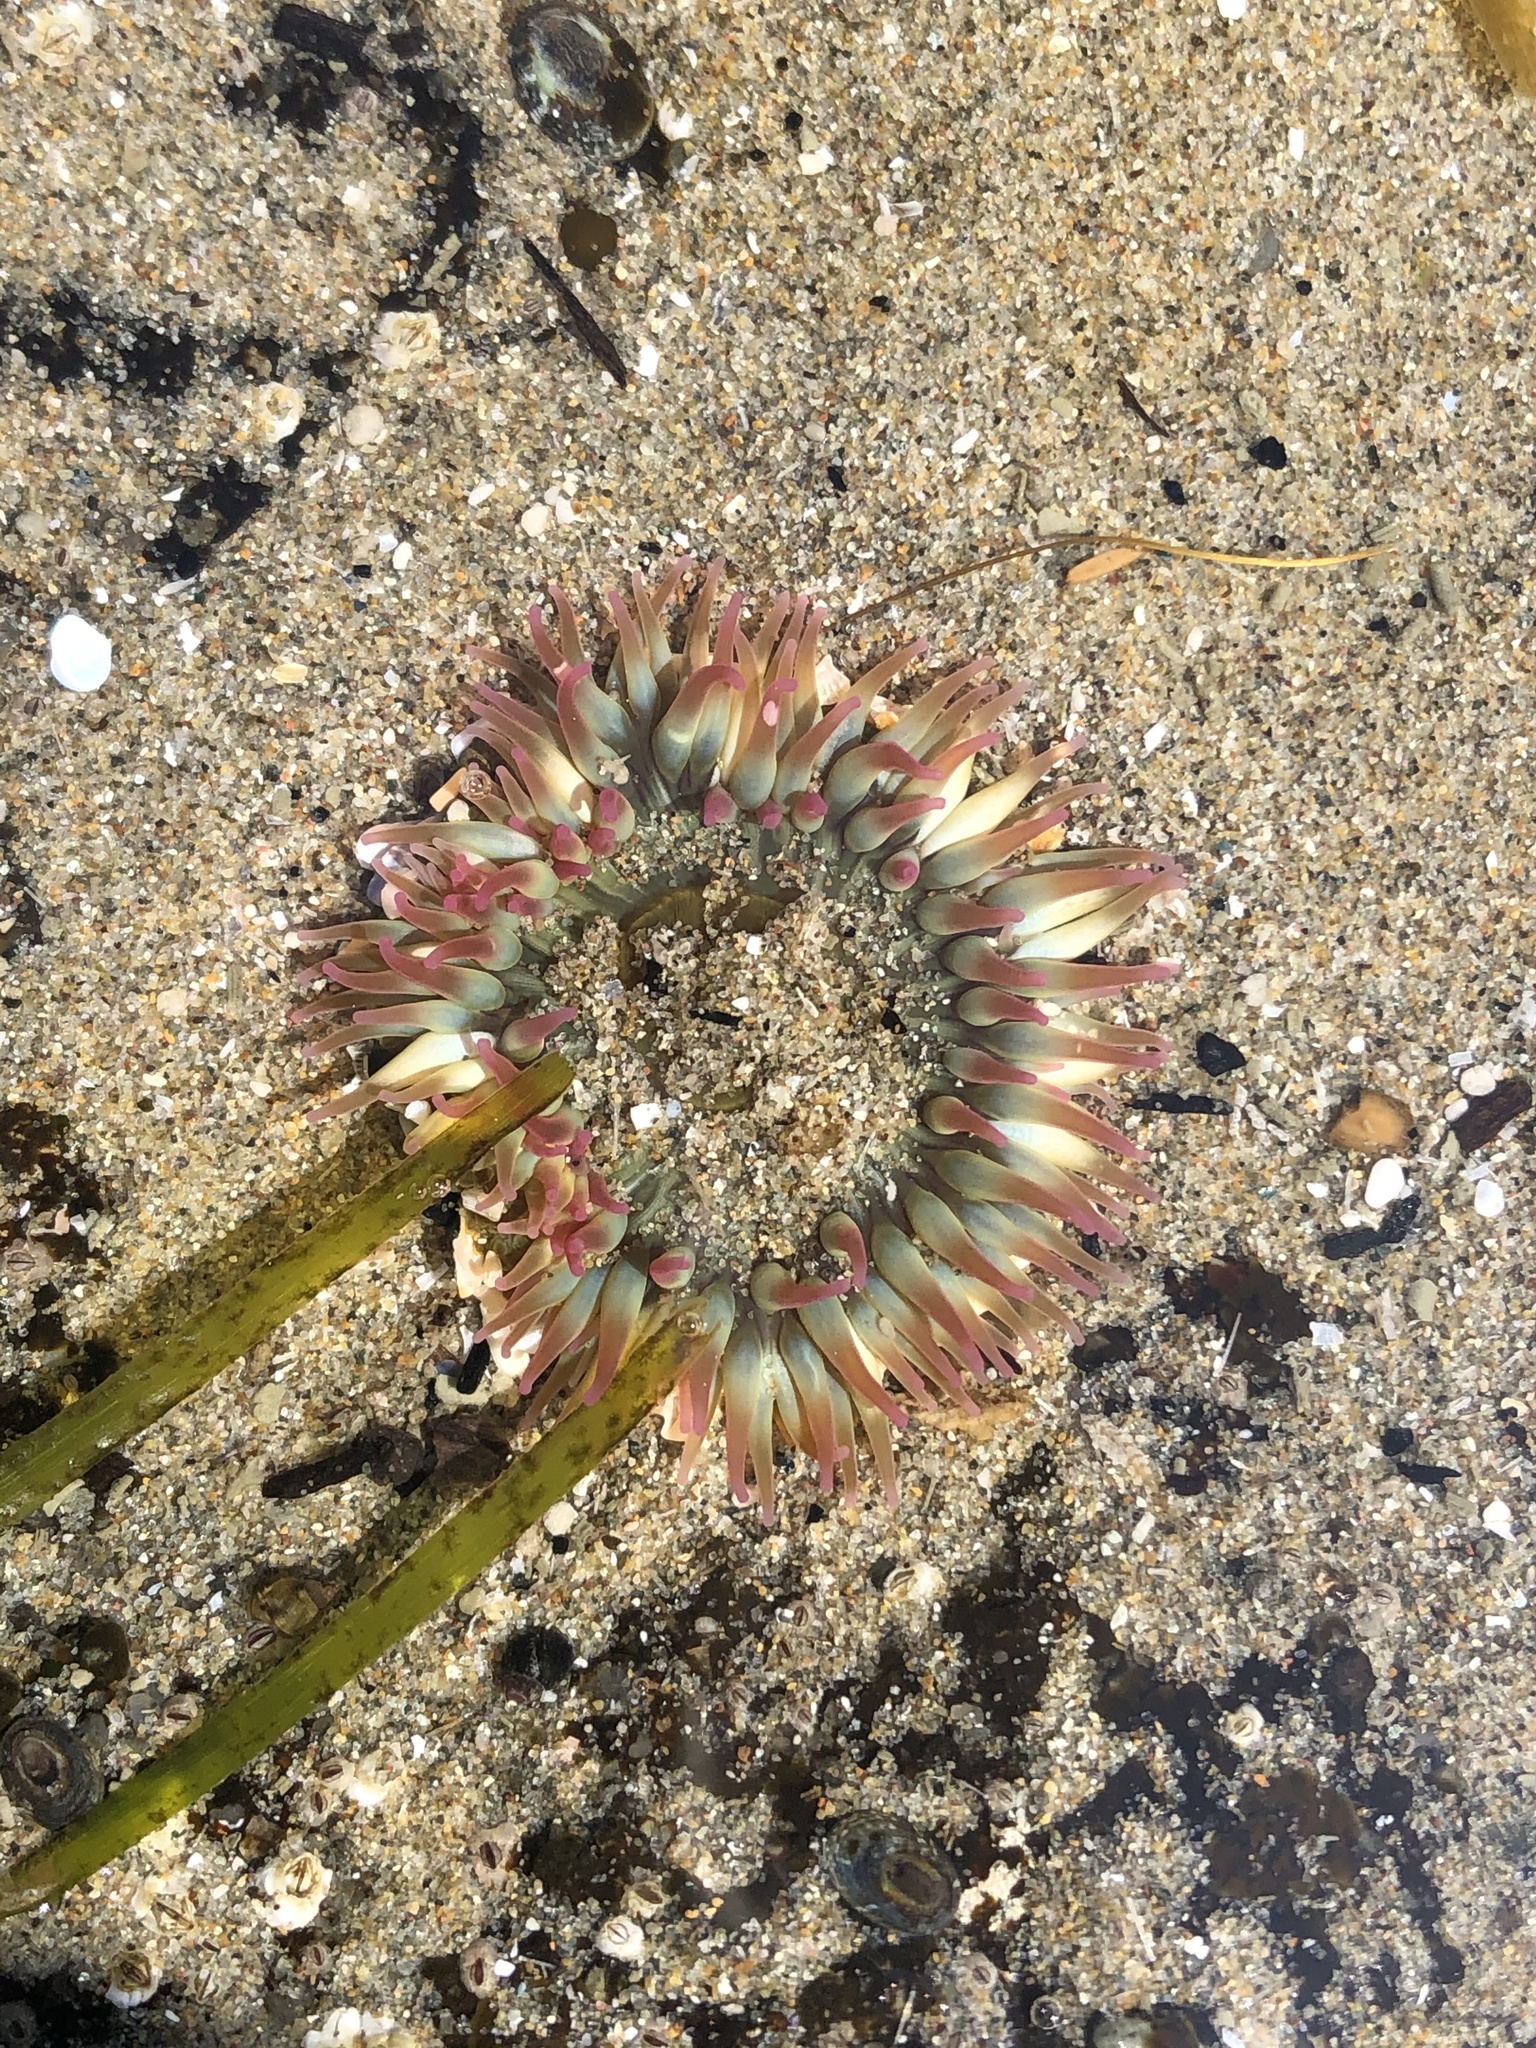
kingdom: Animalia
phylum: Cnidaria
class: Anthozoa
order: Actiniaria
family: Actiniidae
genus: Anthopleura
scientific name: Anthopleura elegantissima
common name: Clonal anemone
